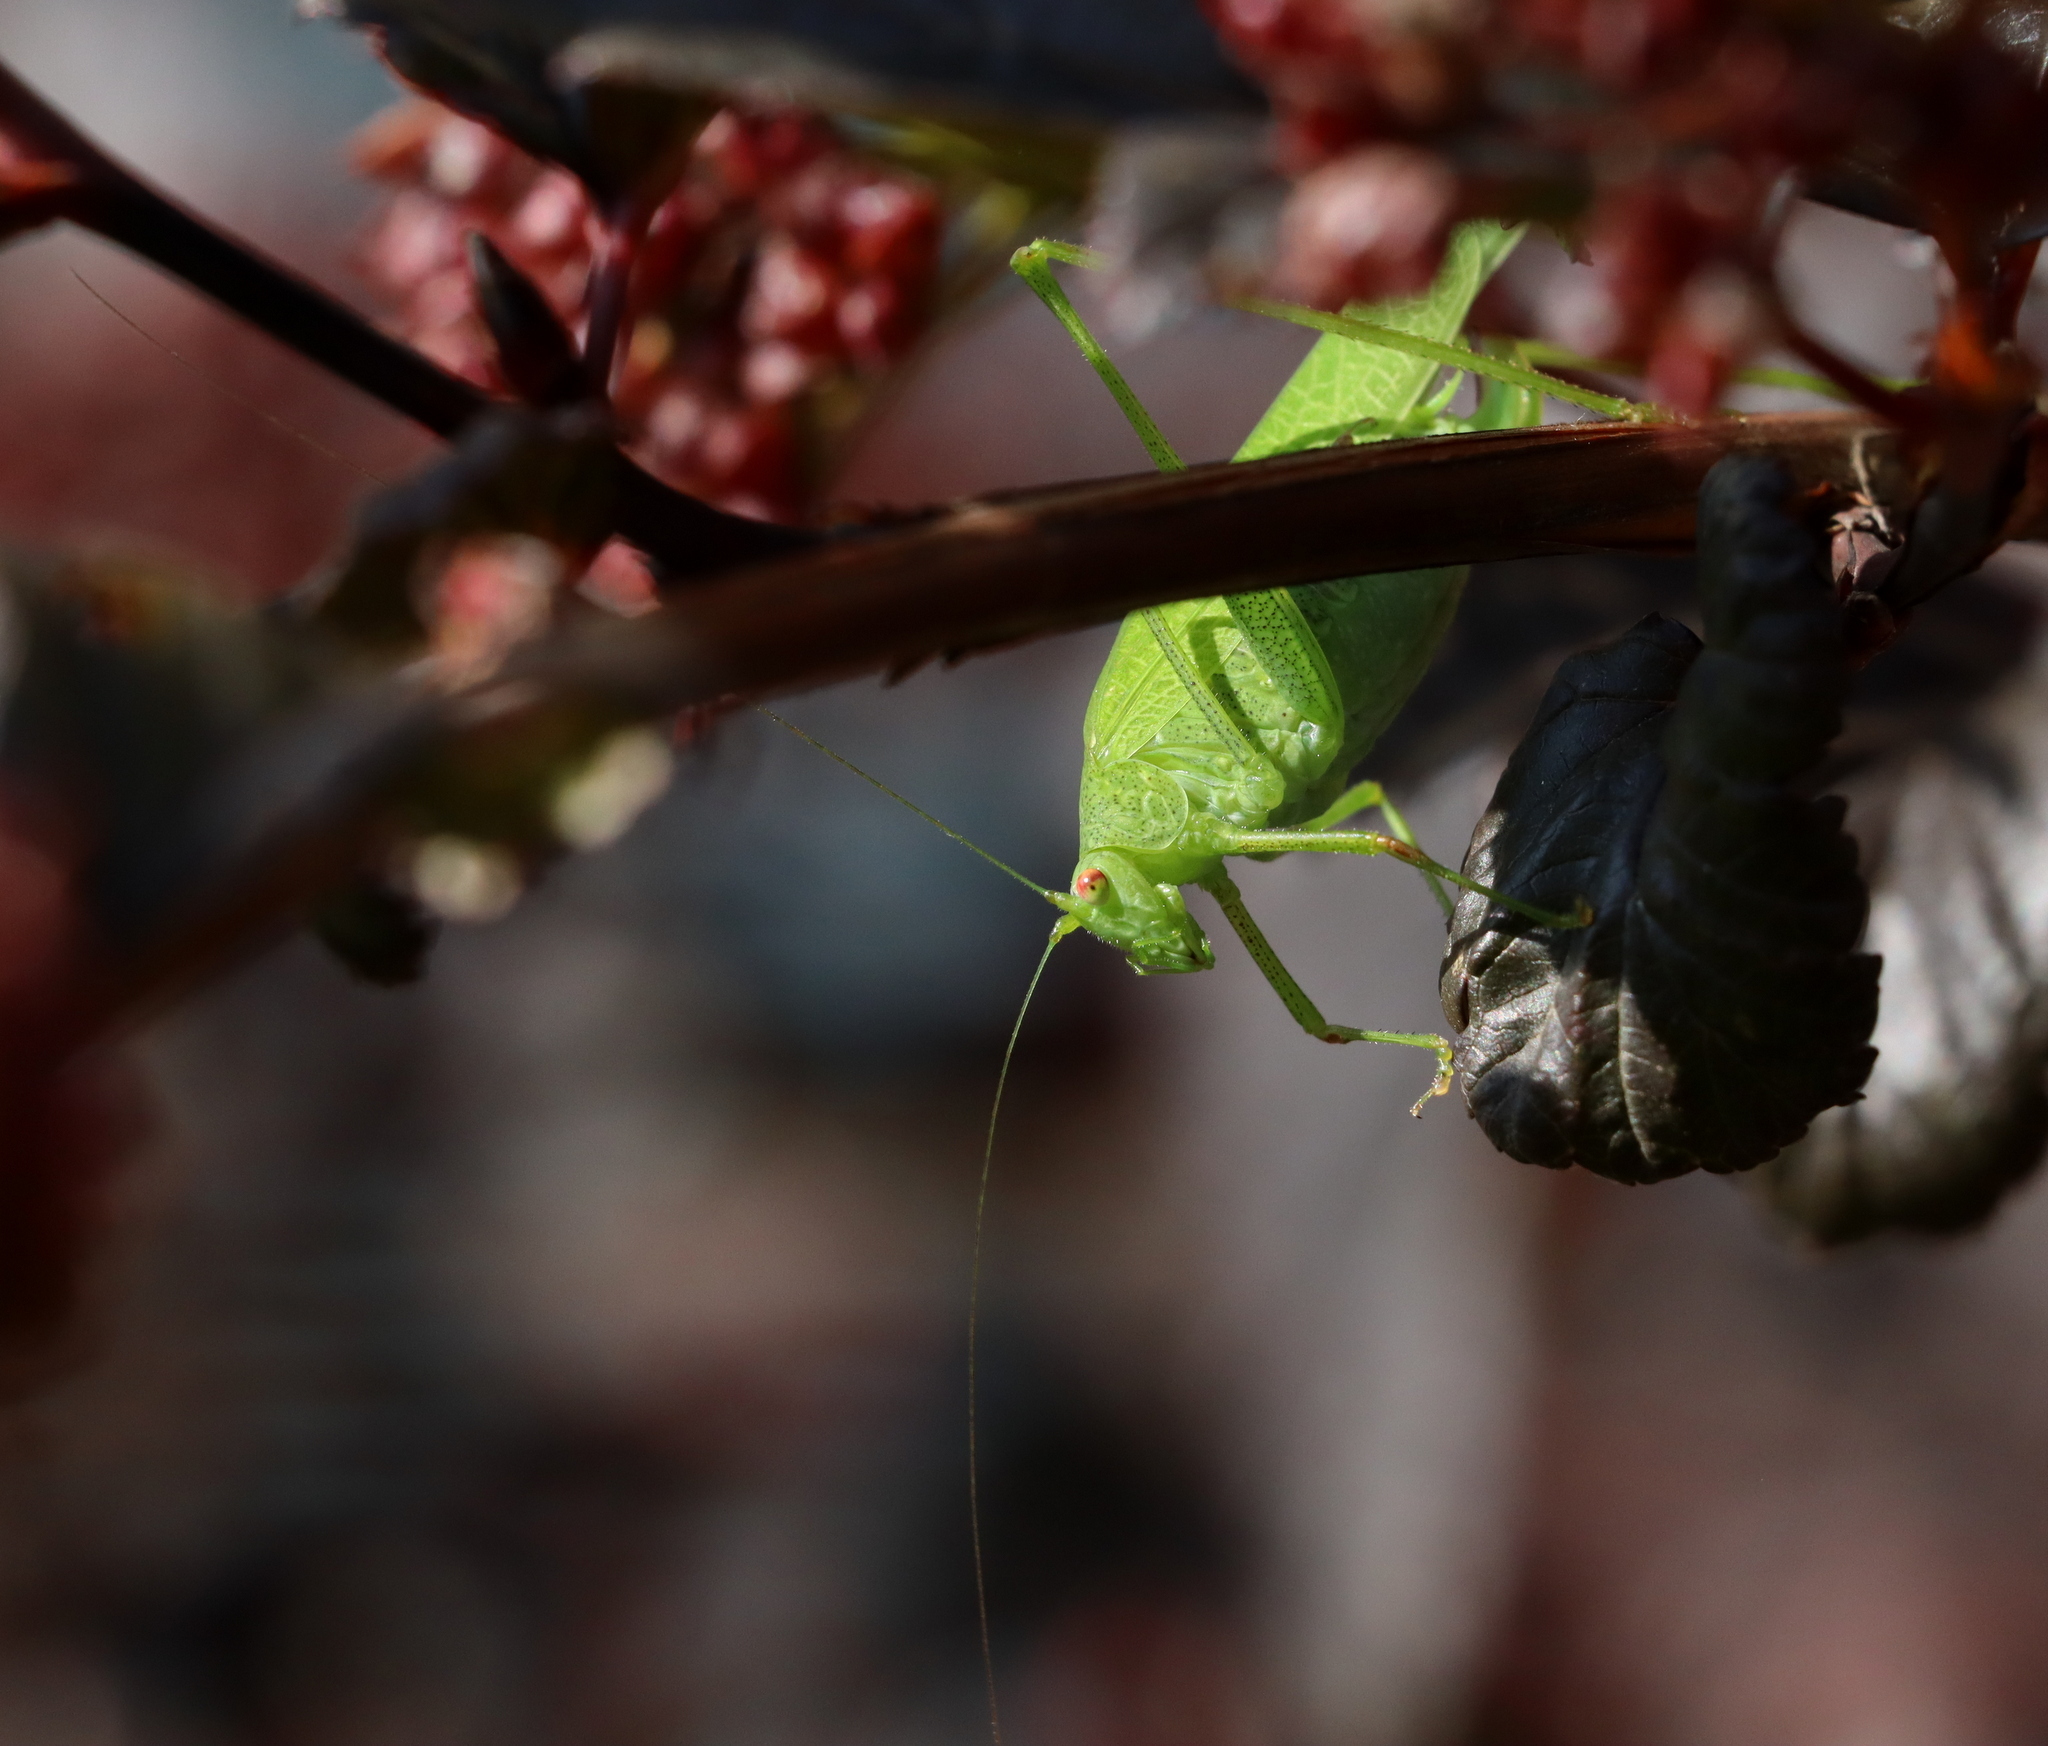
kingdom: Animalia
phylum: Arthropoda
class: Insecta
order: Orthoptera
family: Tettigoniidae
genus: Phaneroptera
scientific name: Phaneroptera nana
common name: Southern sickle bush-cricket
